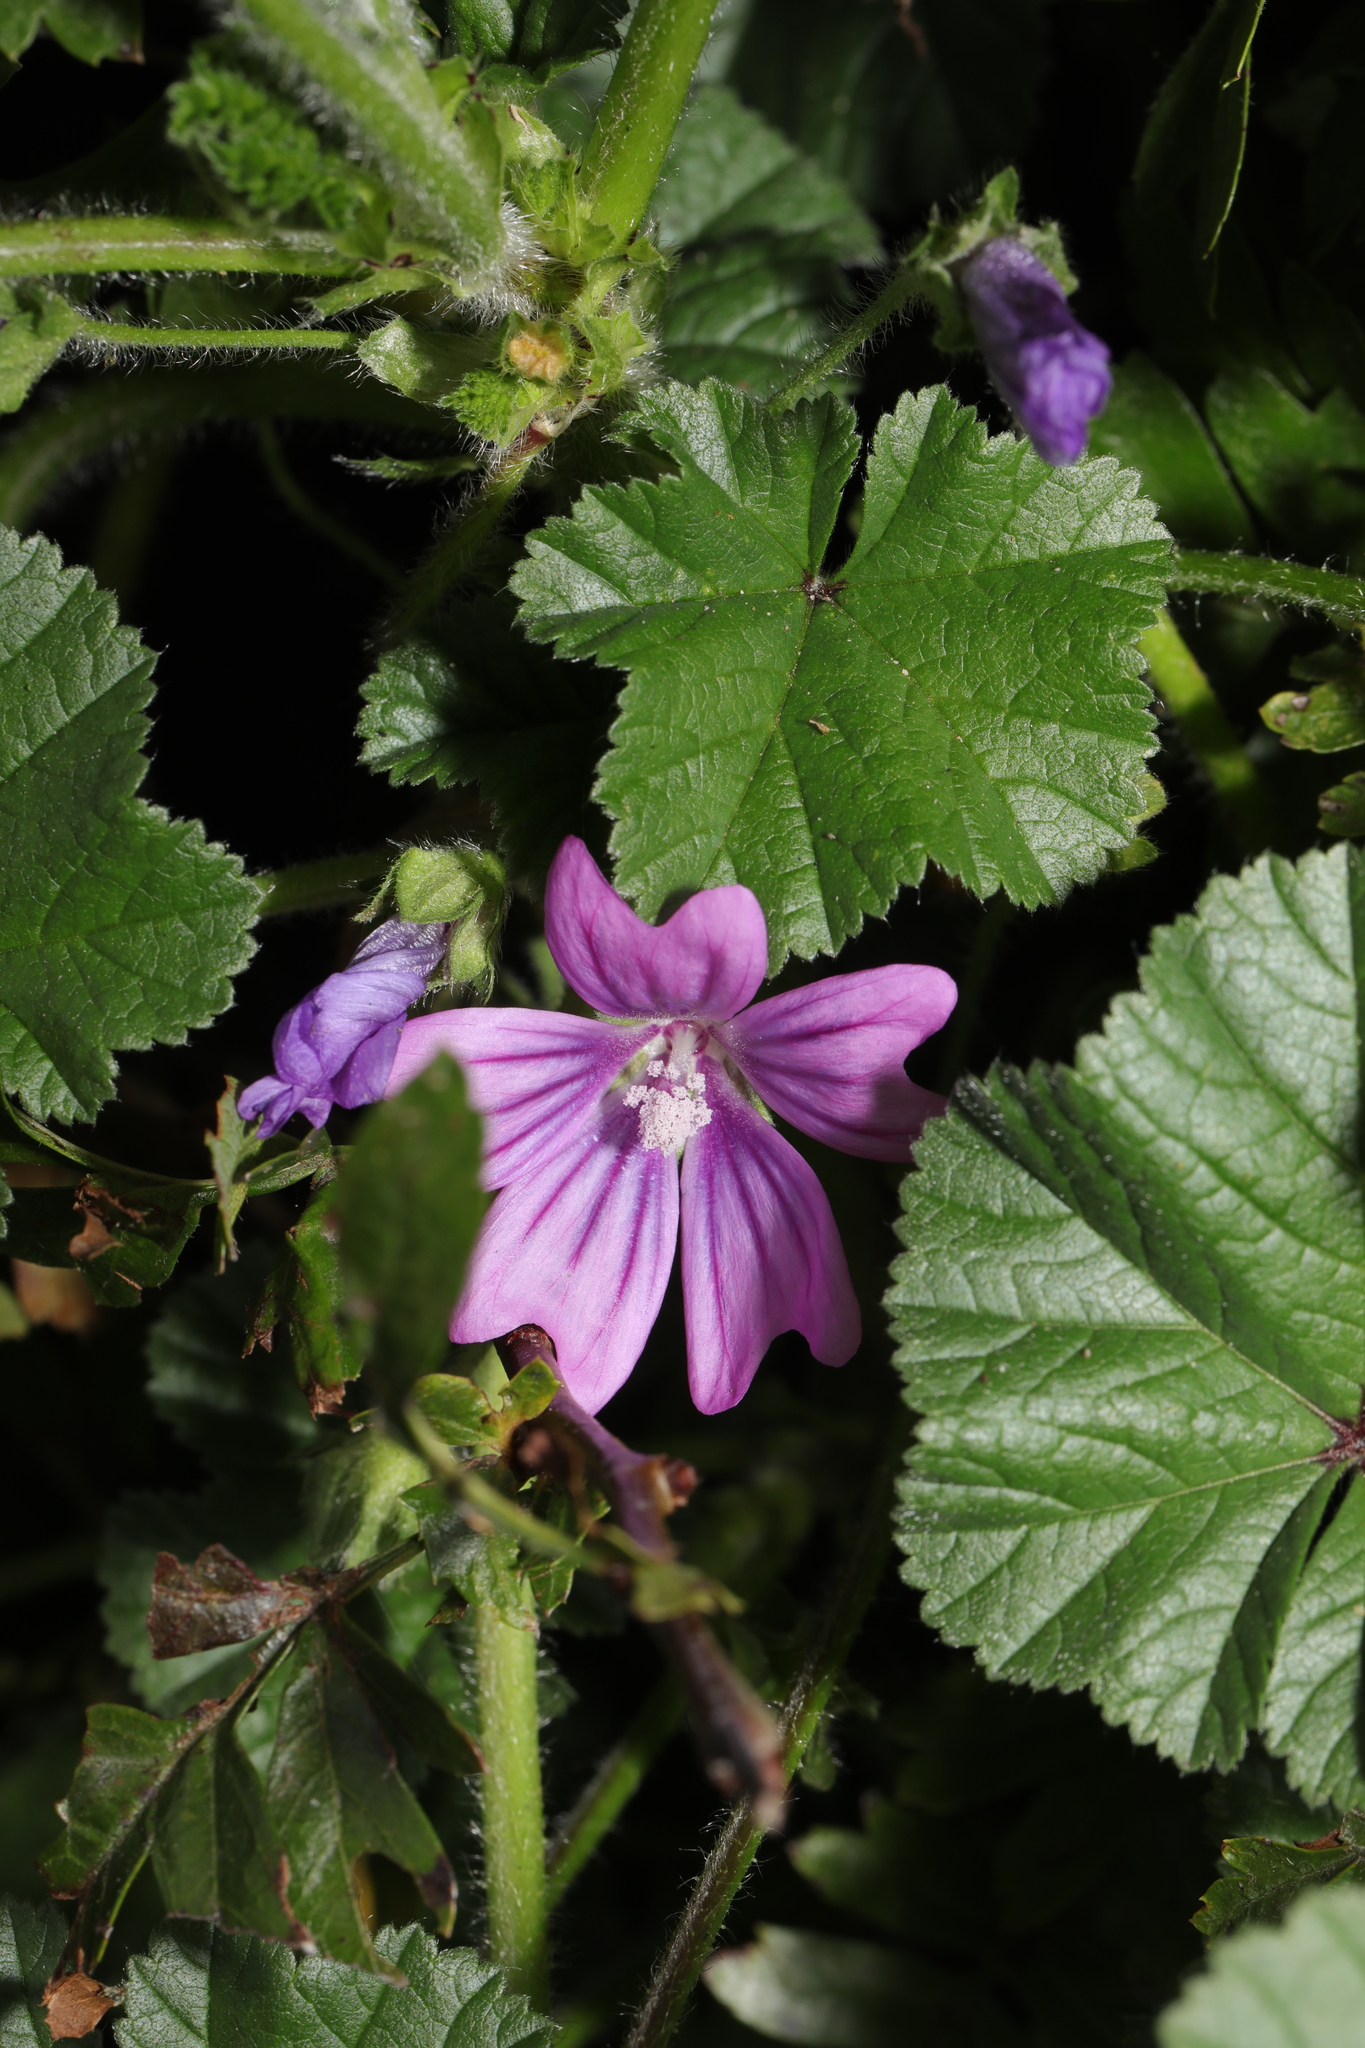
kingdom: Plantae
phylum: Tracheophyta
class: Magnoliopsida
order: Malvales
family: Malvaceae
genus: Malva
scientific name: Malva sylvestris
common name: Common mallow
